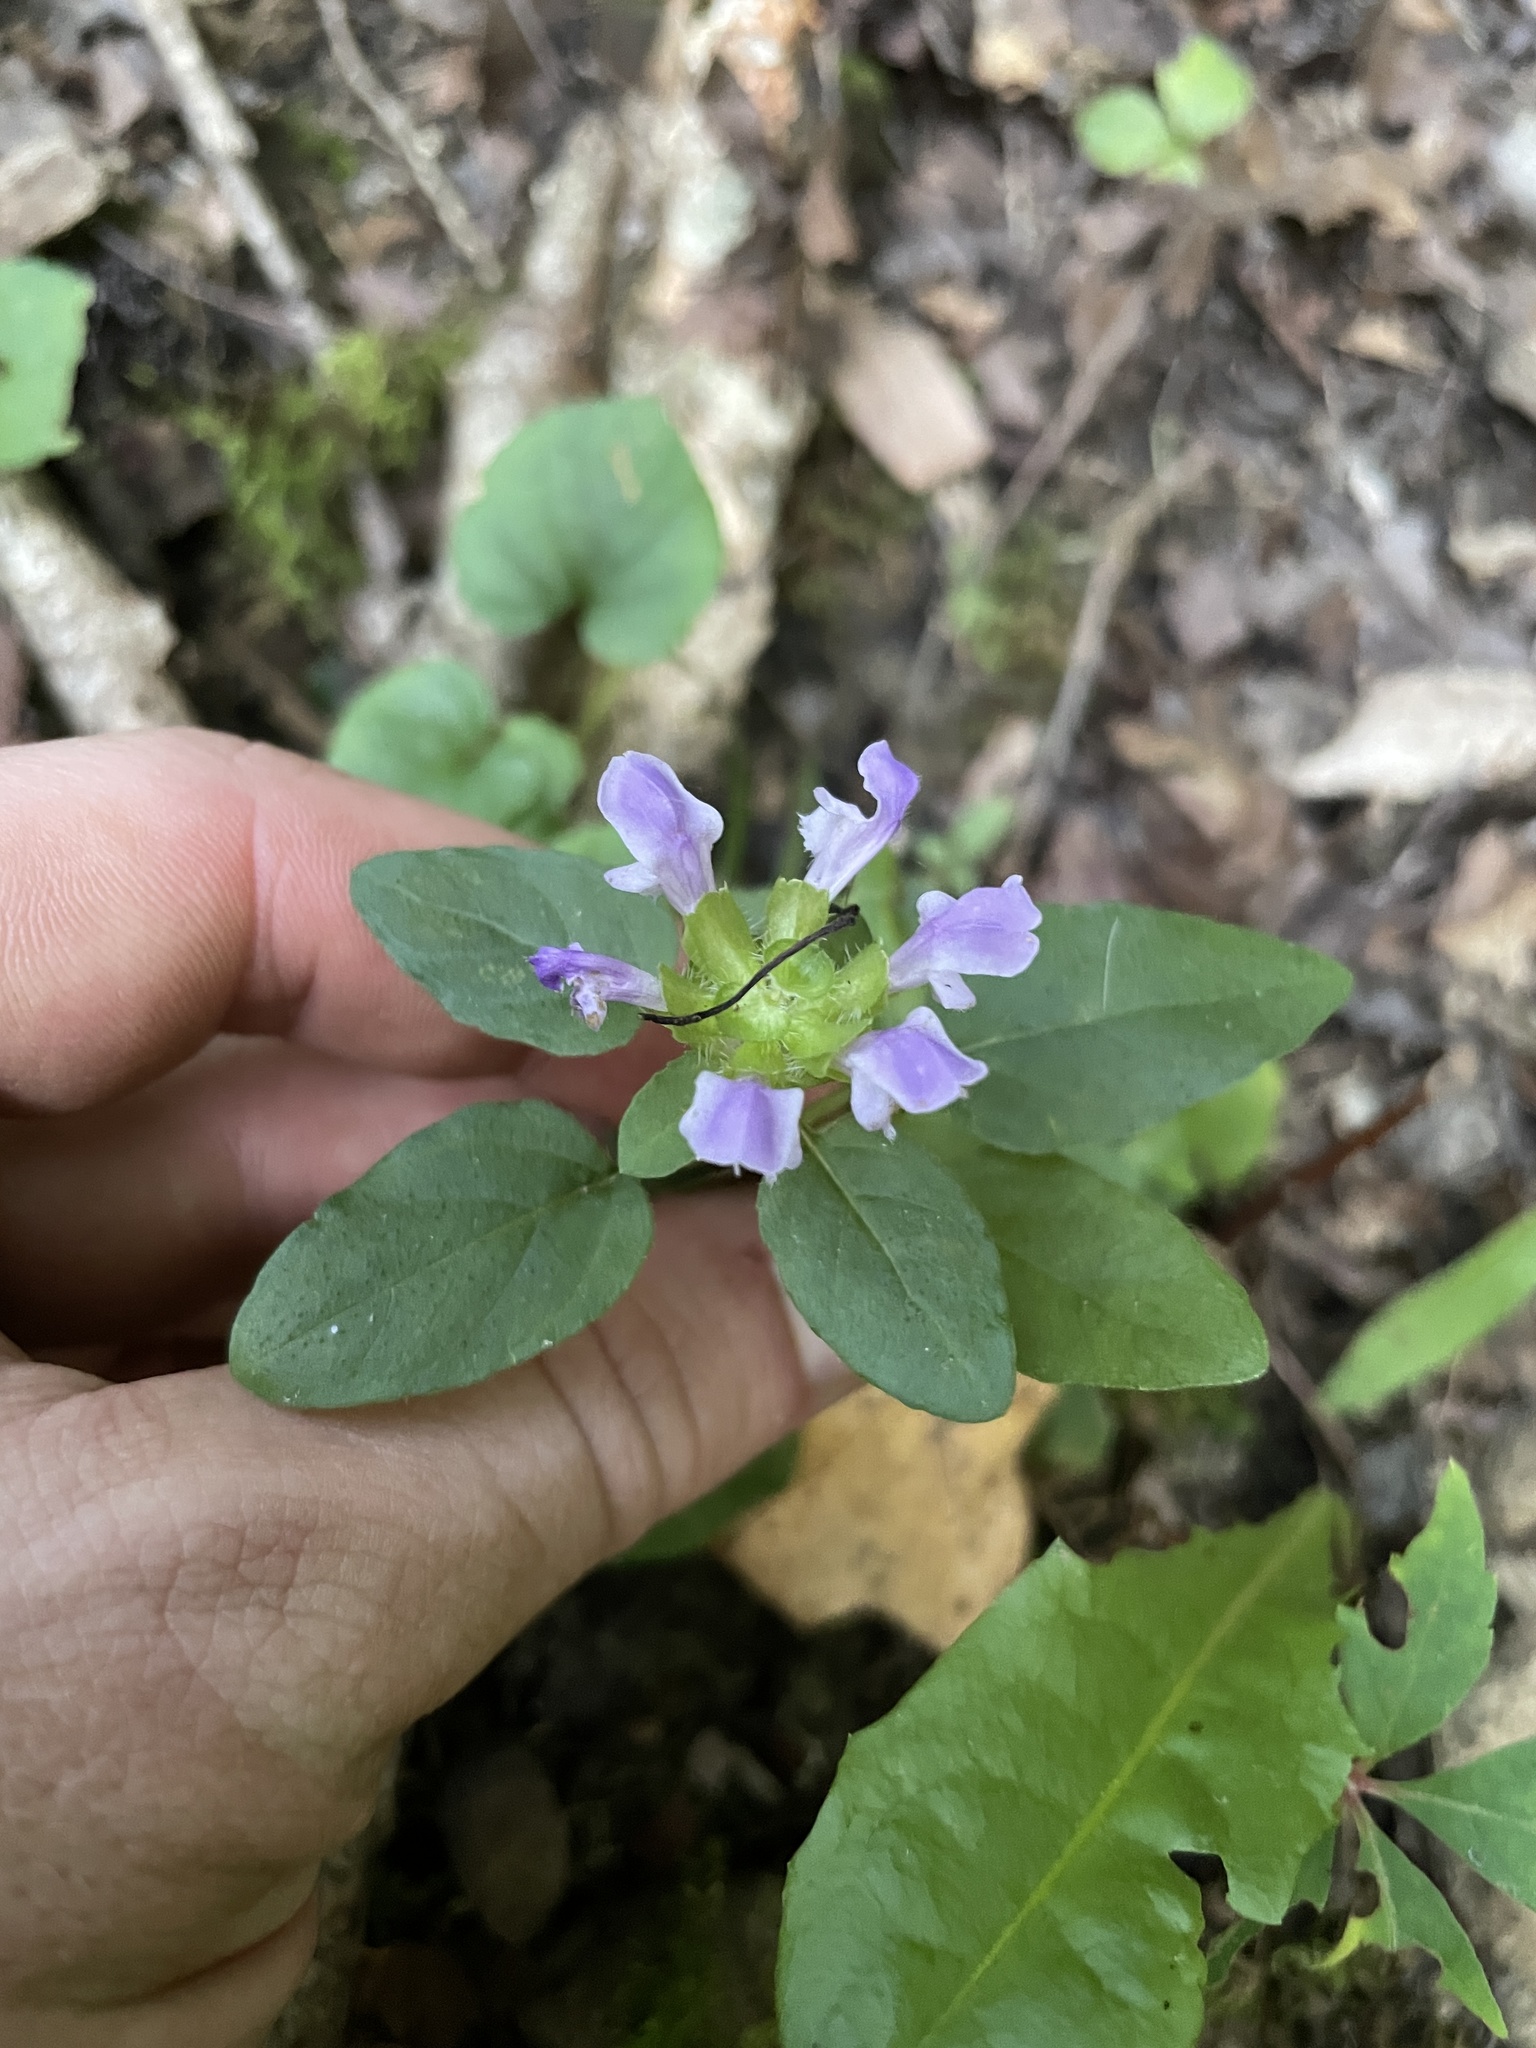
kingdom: Plantae
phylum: Tracheophyta
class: Magnoliopsida
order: Lamiales
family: Lamiaceae
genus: Prunella
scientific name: Prunella vulgaris
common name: Heal-all
